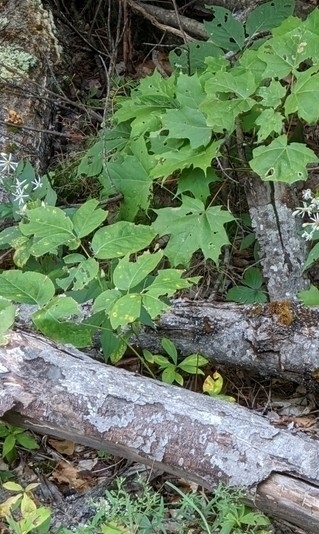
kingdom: Plantae
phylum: Tracheophyta
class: Magnoliopsida
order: Apiales
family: Araliaceae
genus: Aralia
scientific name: Aralia nudicaulis
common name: Wild sarsaparilla
